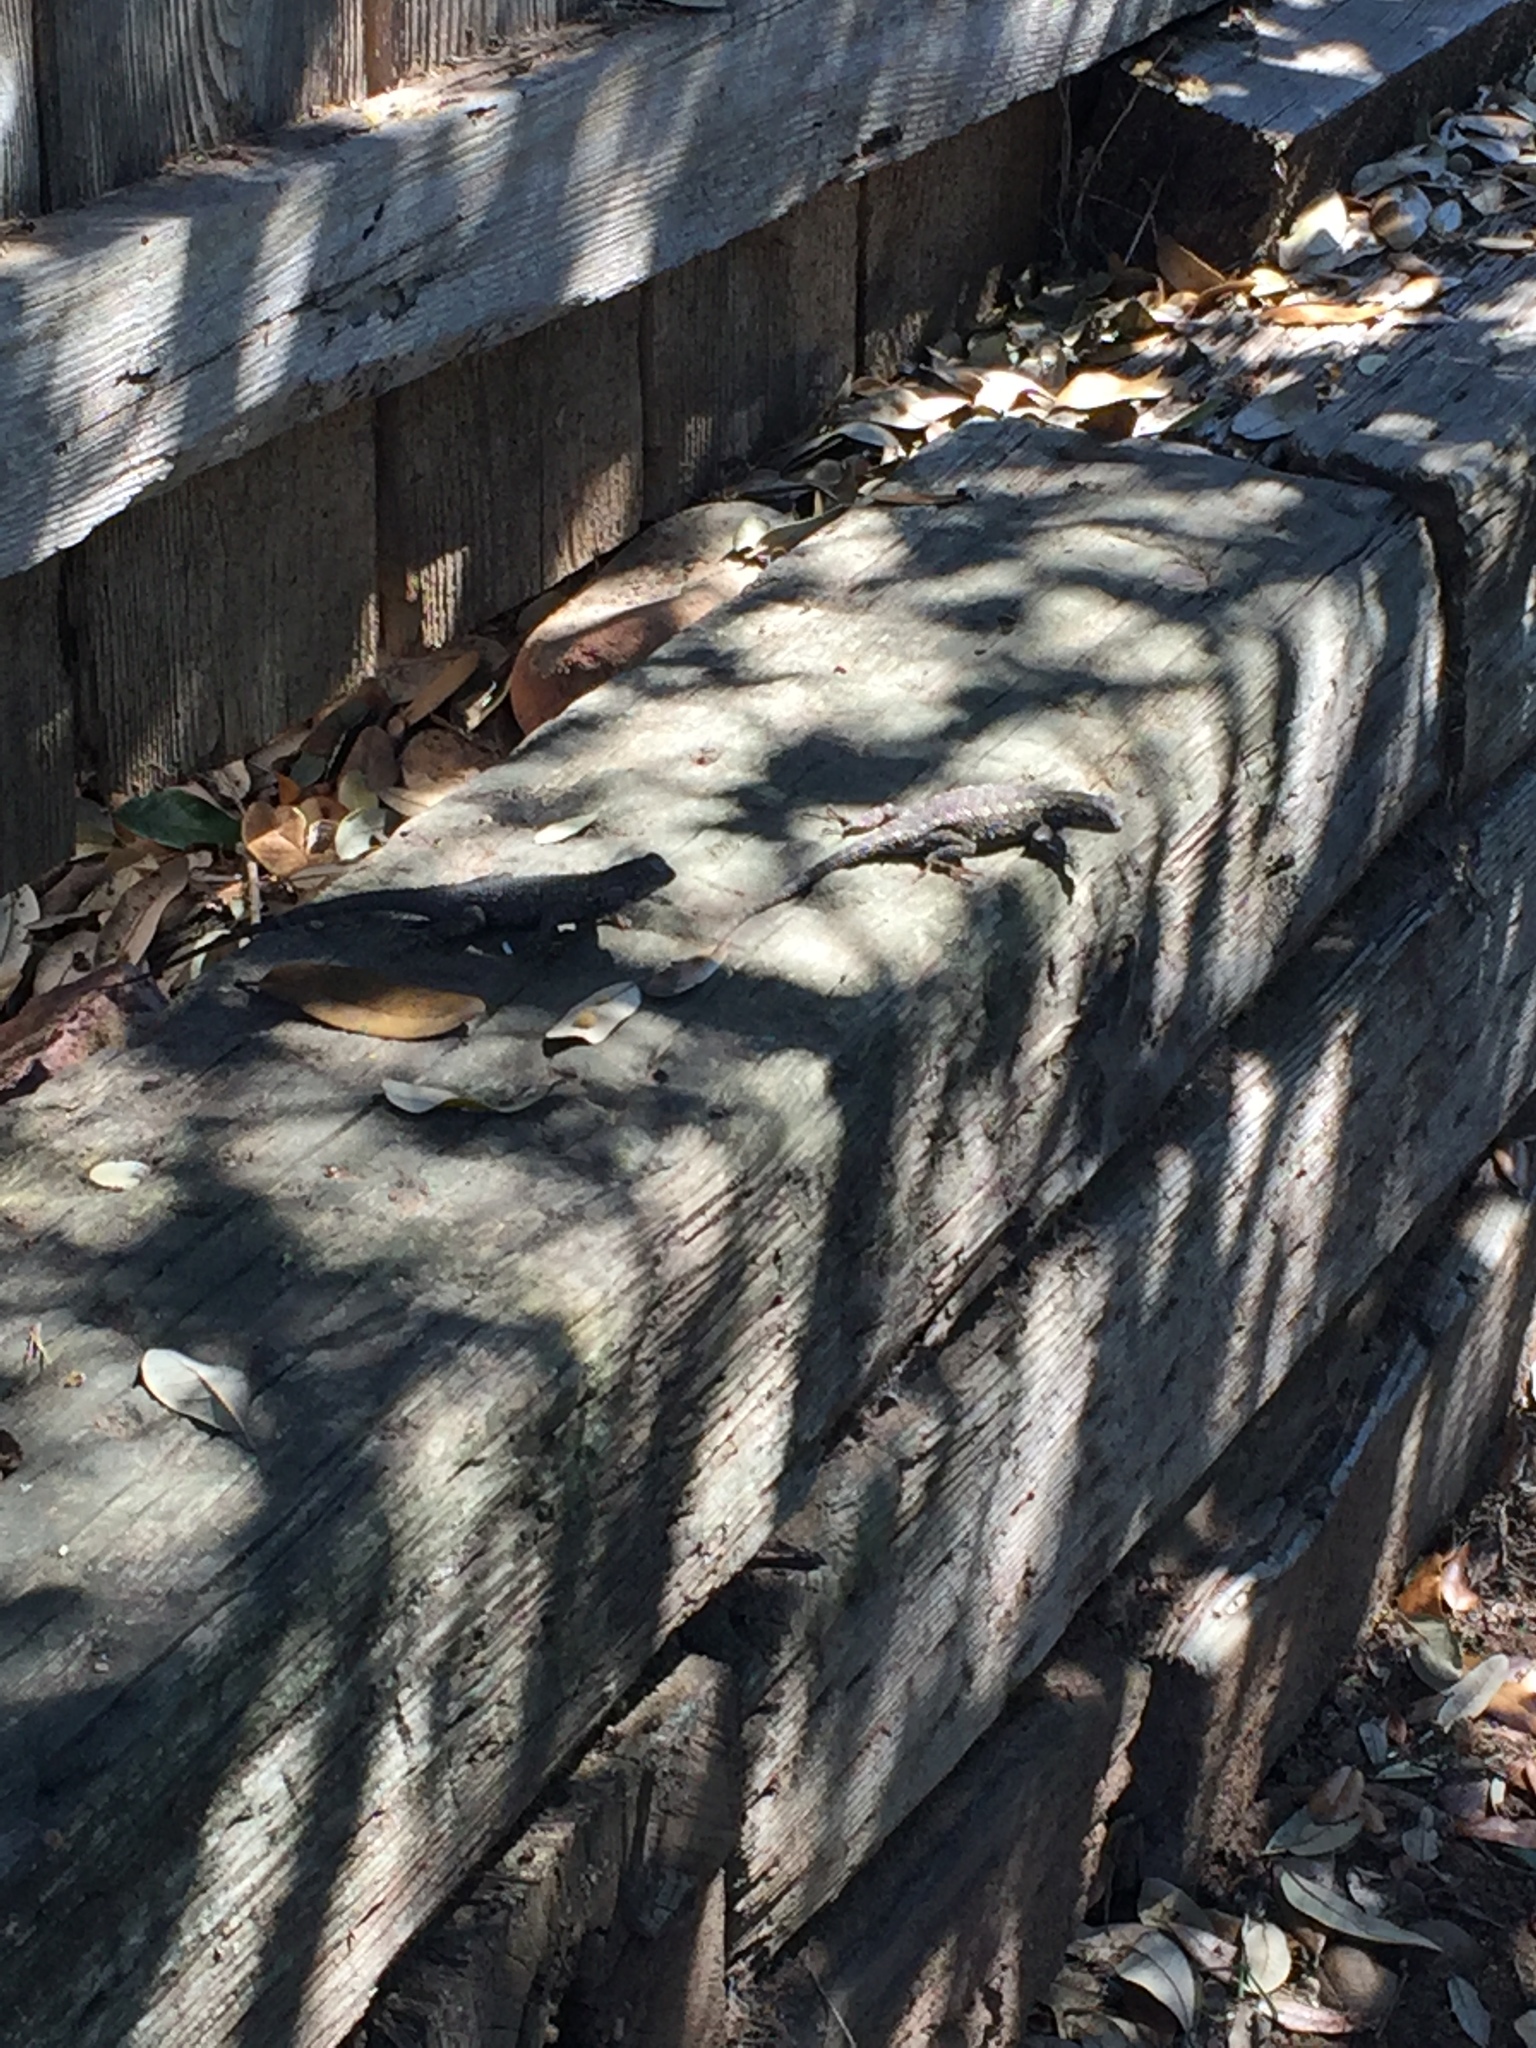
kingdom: Animalia
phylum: Chordata
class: Squamata
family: Phrynosomatidae
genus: Sceloporus
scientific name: Sceloporus occidentalis
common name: Western fence lizard
